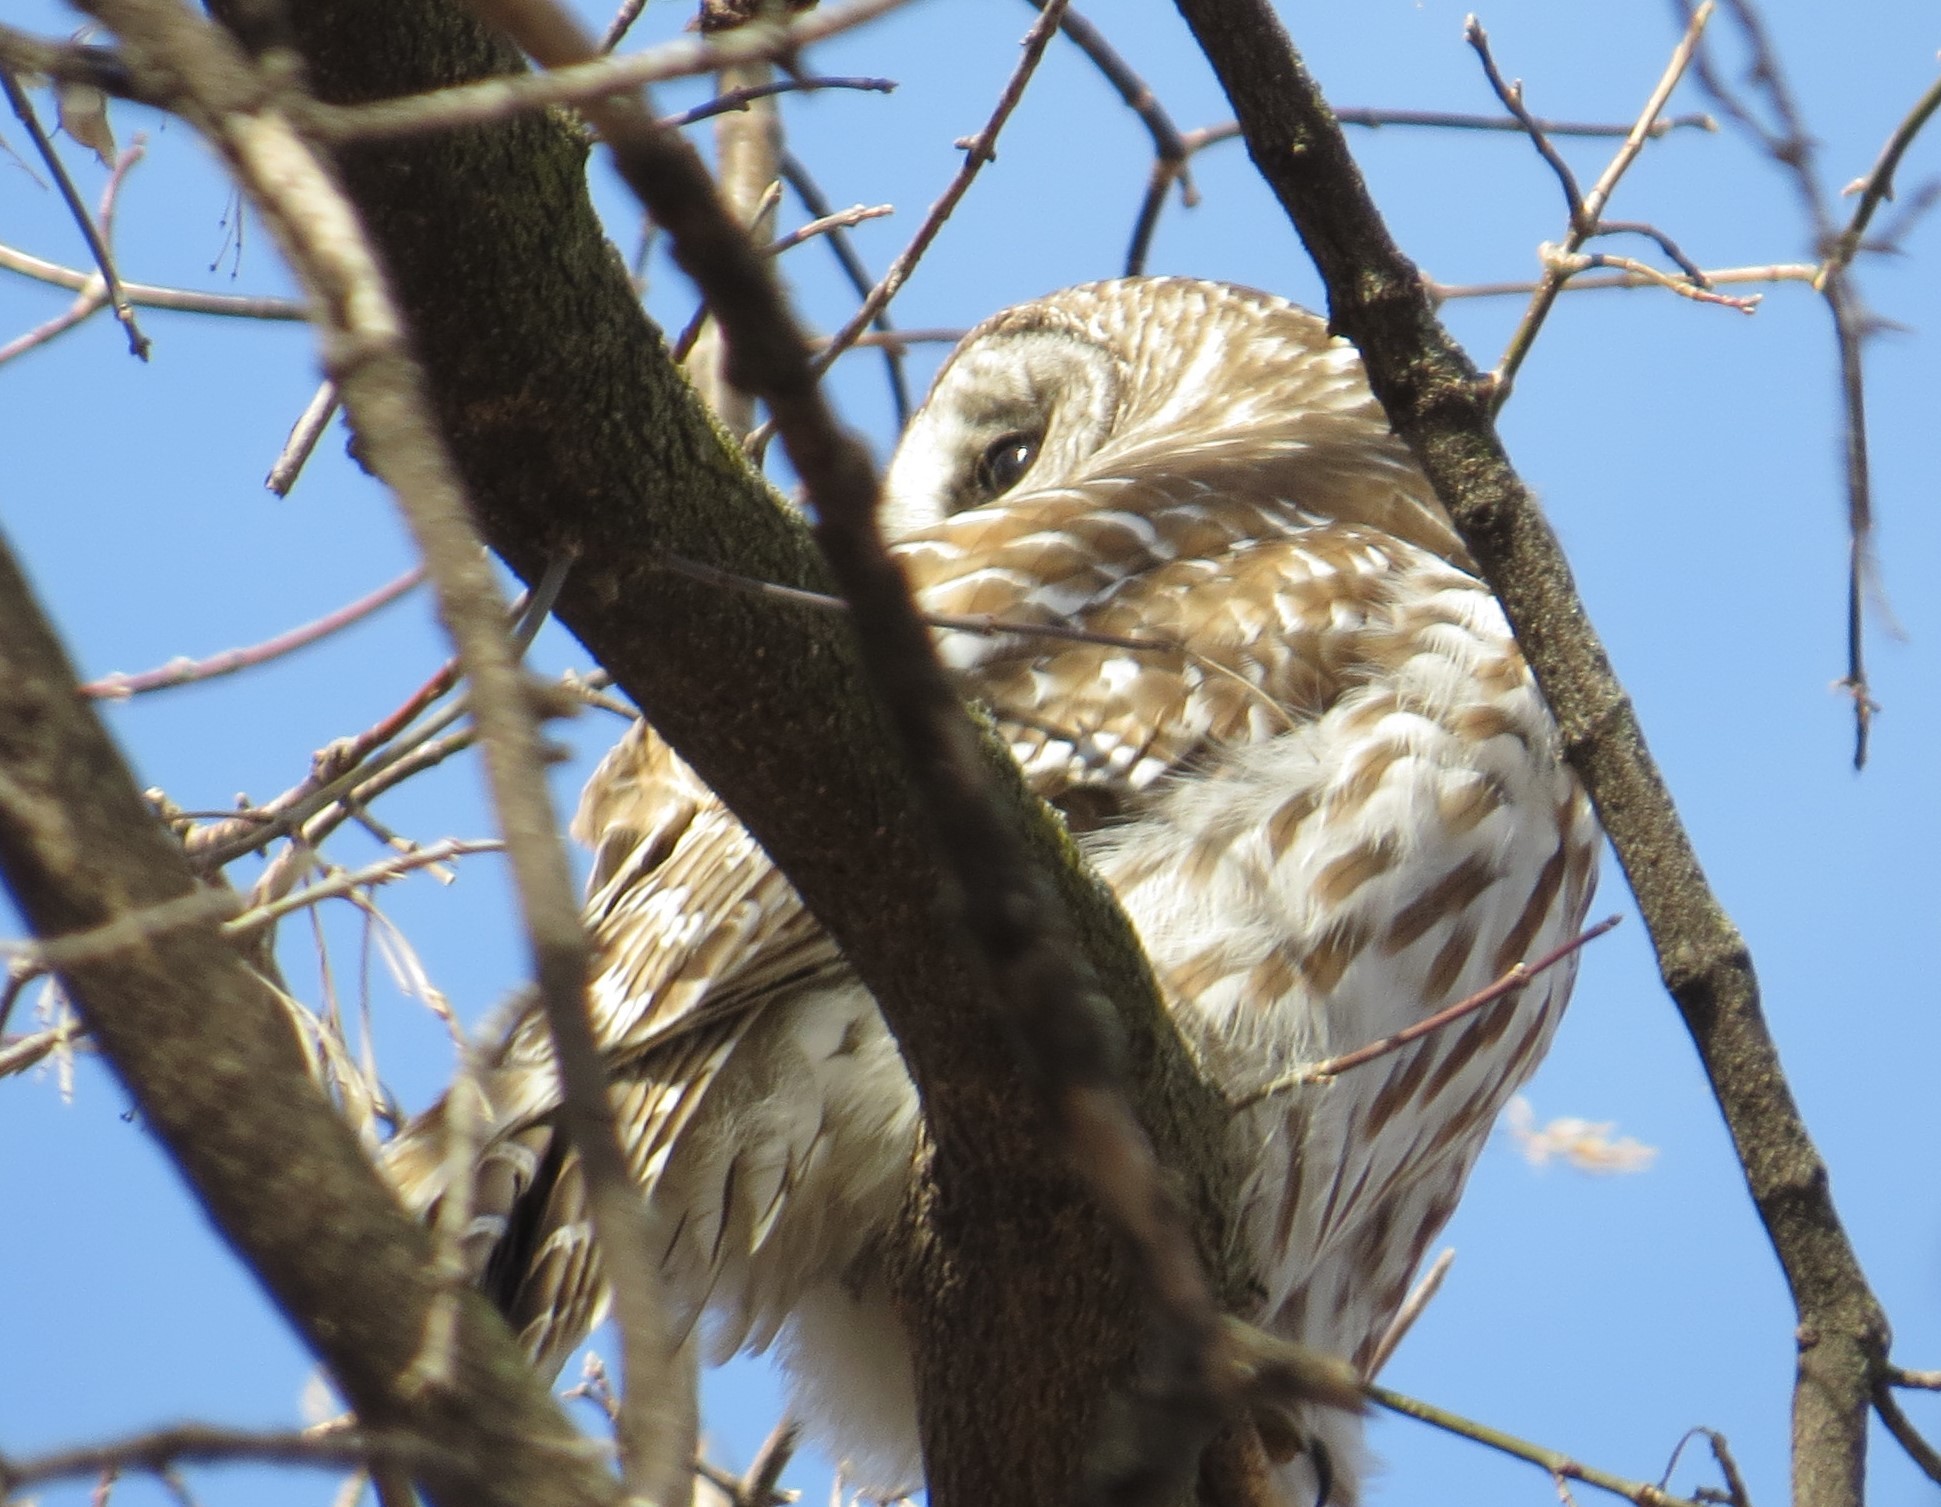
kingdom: Animalia
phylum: Chordata
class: Aves
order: Strigiformes
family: Strigidae
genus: Strix
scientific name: Strix varia
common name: Barred owl
